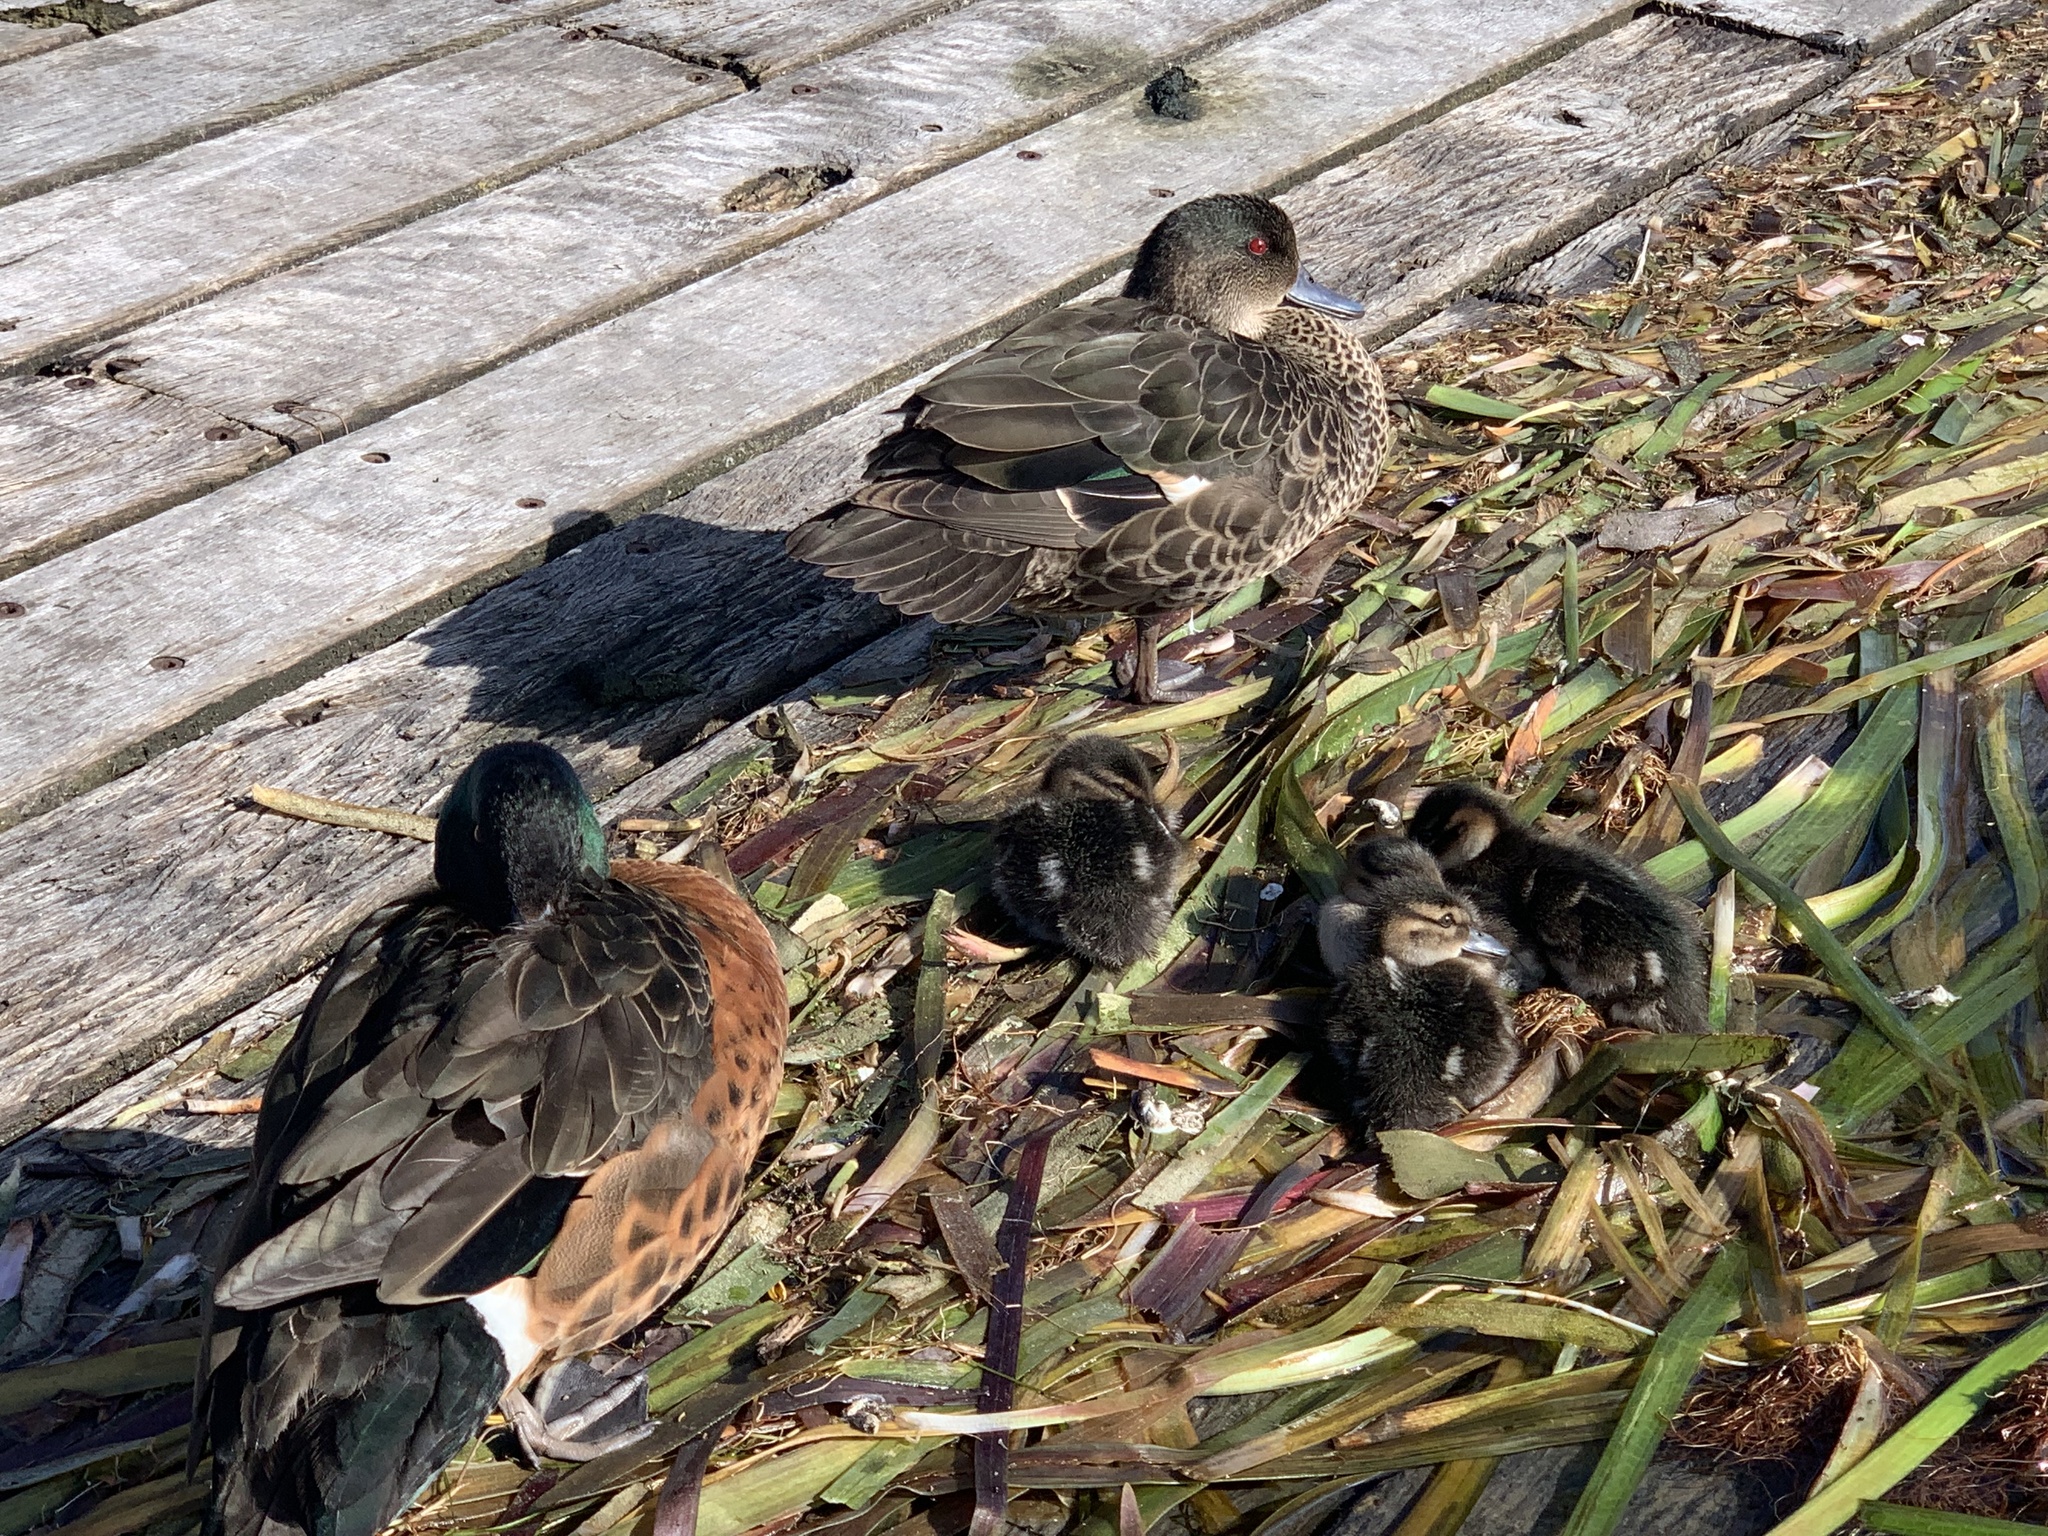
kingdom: Animalia
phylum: Chordata
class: Aves
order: Anseriformes
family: Anatidae
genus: Anas
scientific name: Anas castanea
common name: Chestnut teal
